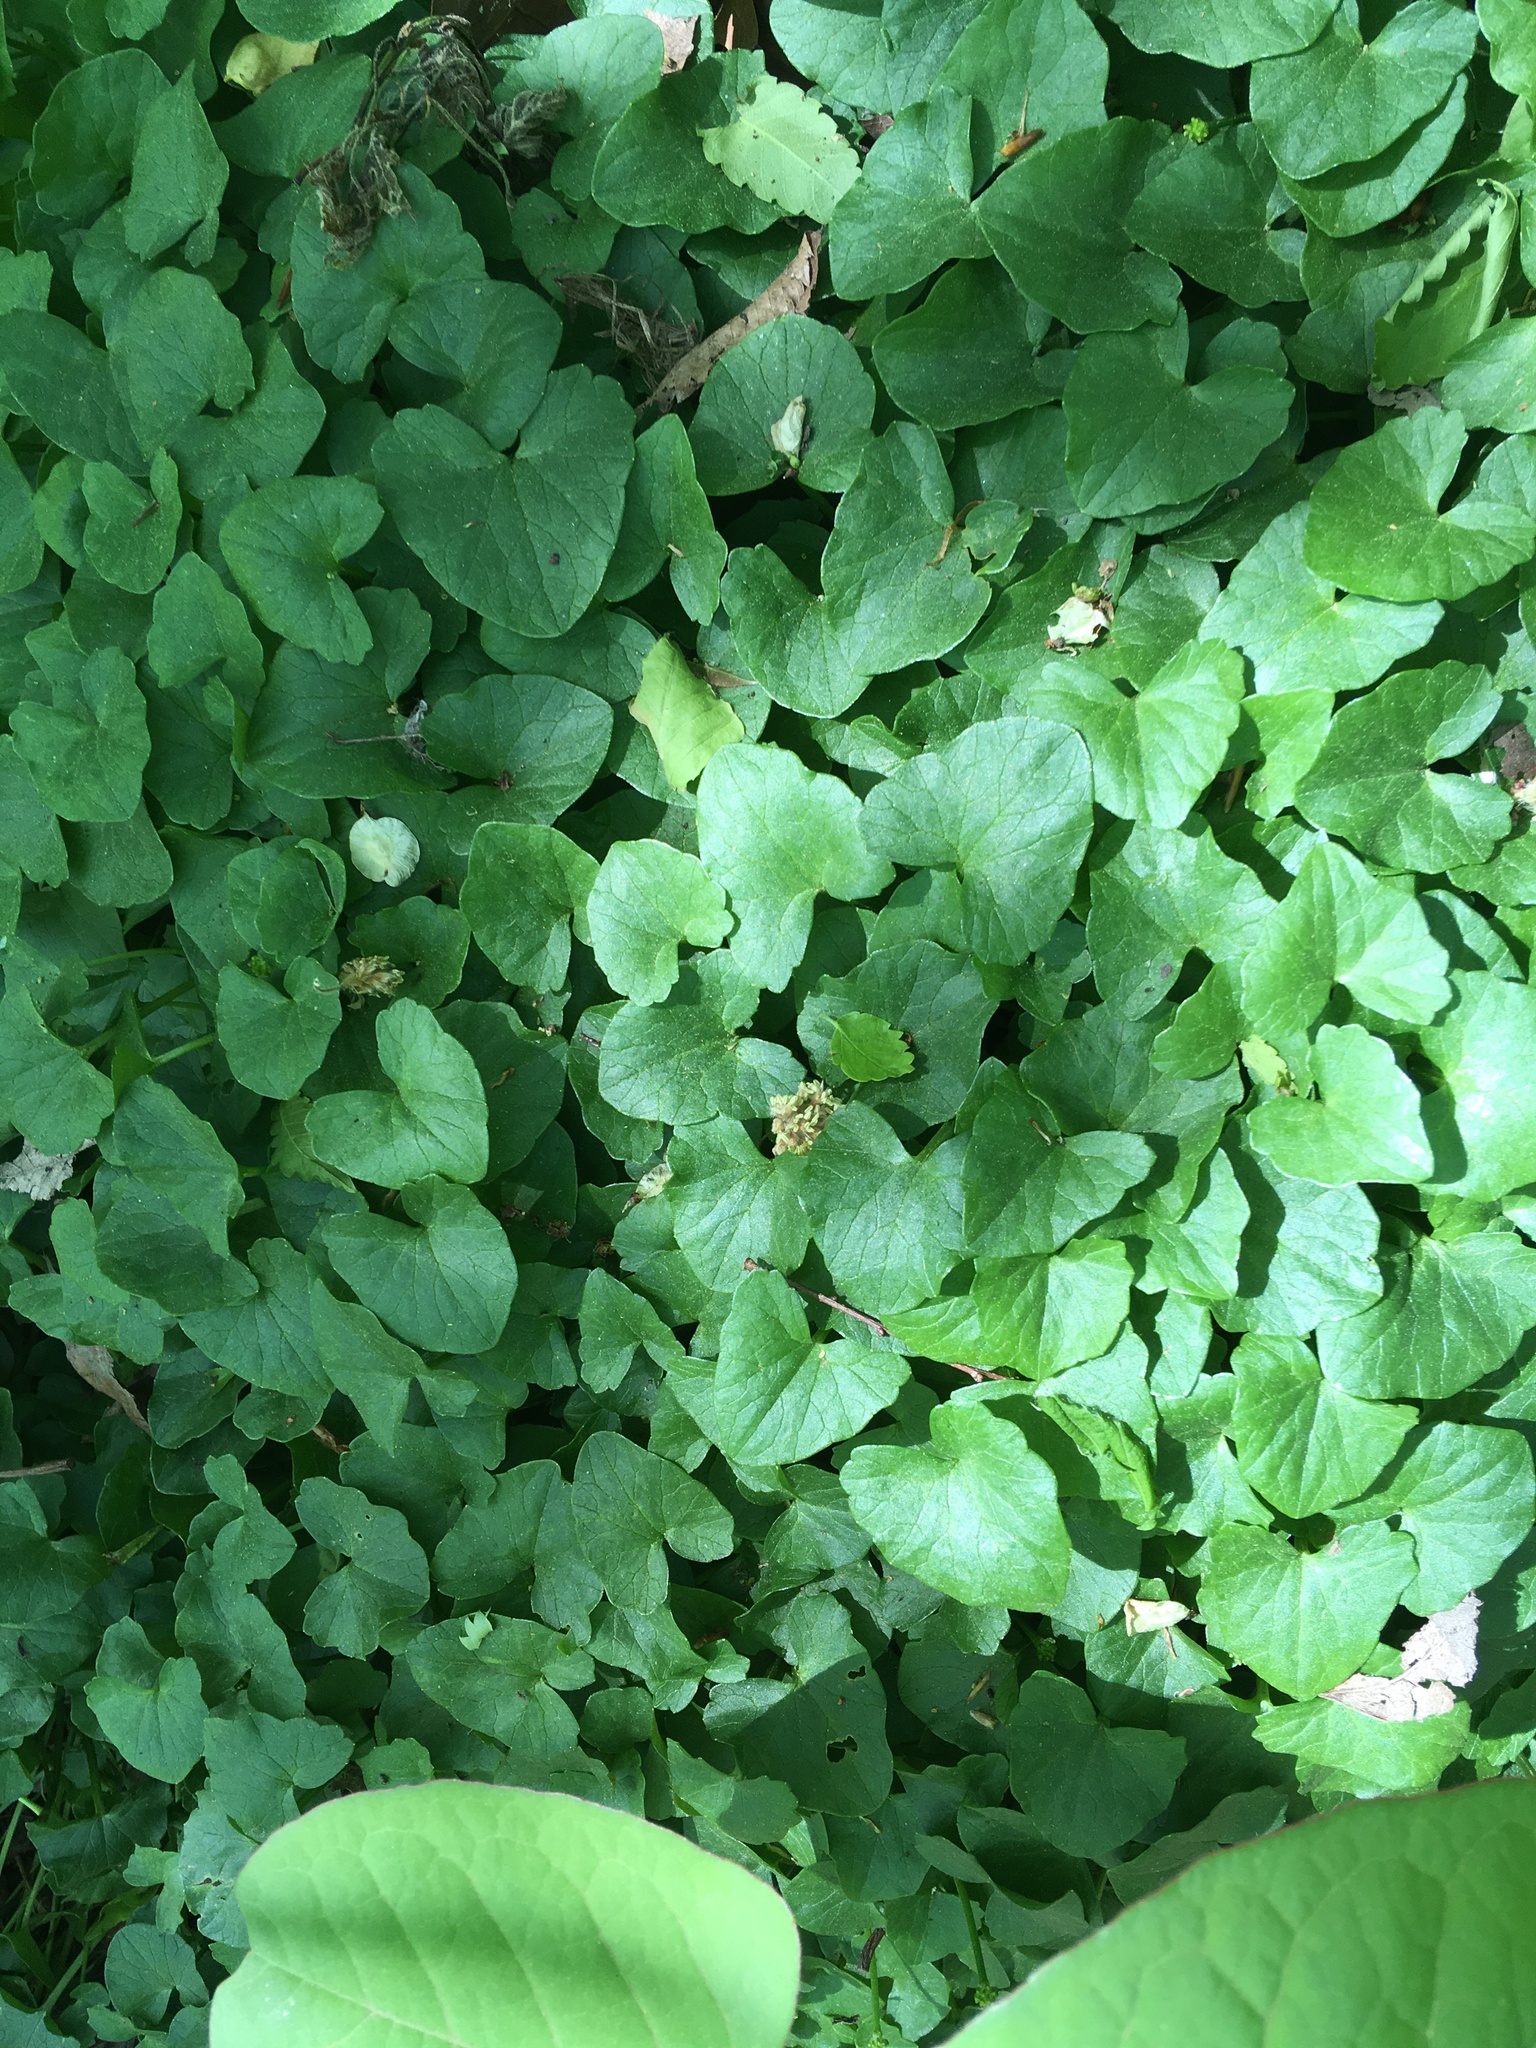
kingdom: Plantae
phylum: Tracheophyta
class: Magnoliopsida
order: Ranunculales
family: Ranunculaceae
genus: Ficaria
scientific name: Ficaria verna
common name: Lesser celandine
